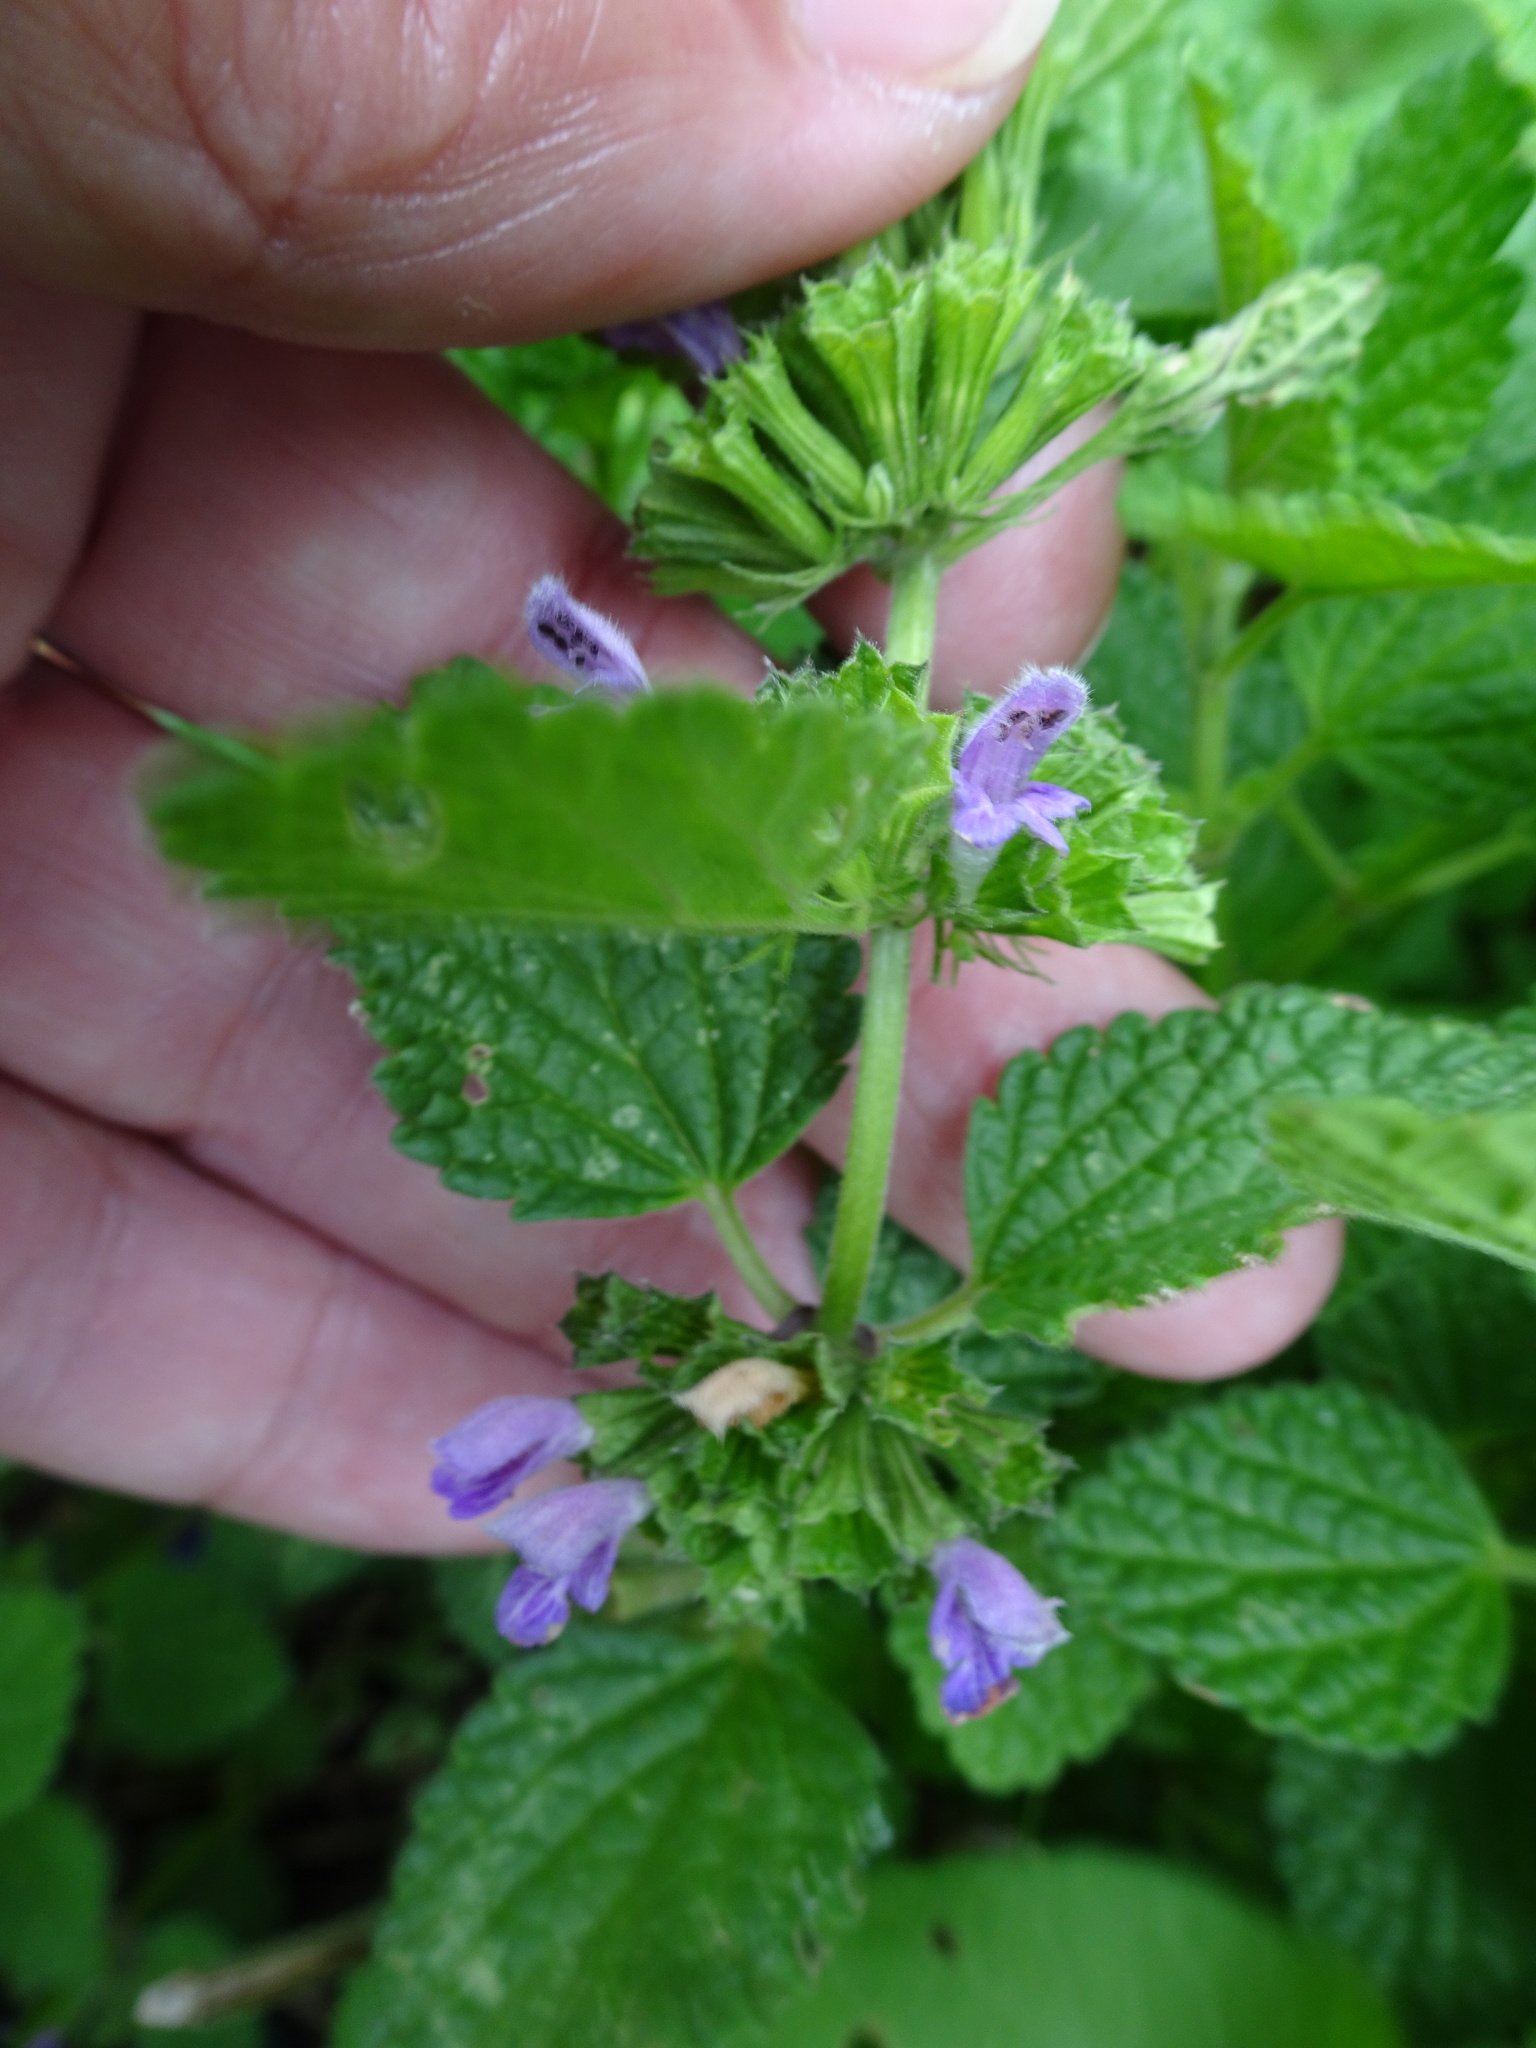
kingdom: Plantae
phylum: Tracheophyta
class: Magnoliopsida
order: Lamiales
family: Lamiaceae
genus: Ballota
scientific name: Ballota nigra
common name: Black horehound
